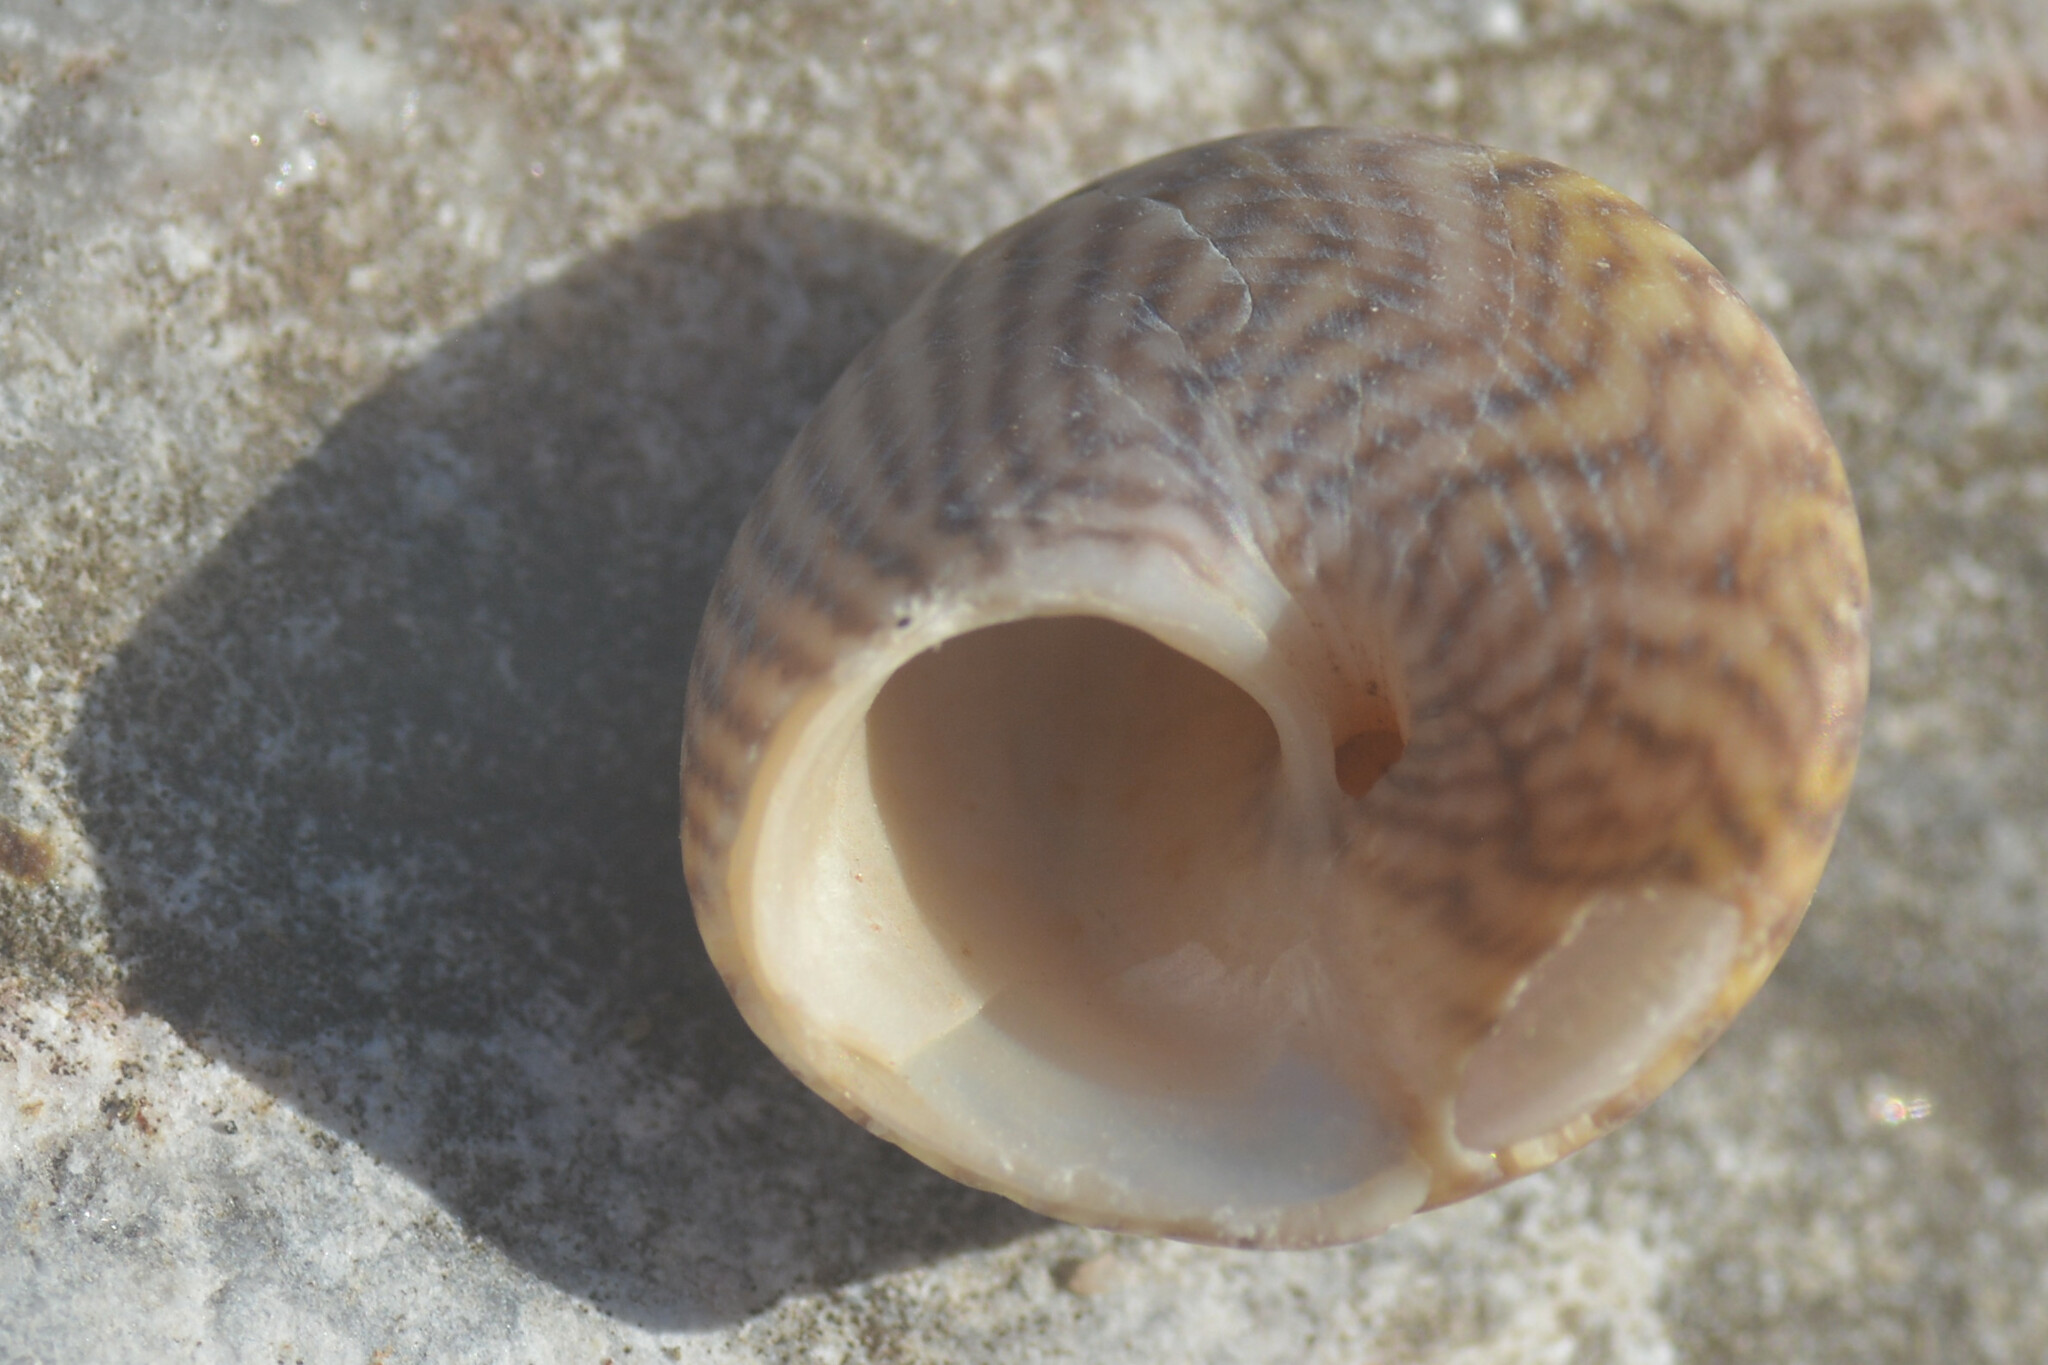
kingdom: Animalia
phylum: Mollusca
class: Gastropoda
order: Trochida
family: Trochidae
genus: Steromphala
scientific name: Steromphala cineraria
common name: Grey top shell
